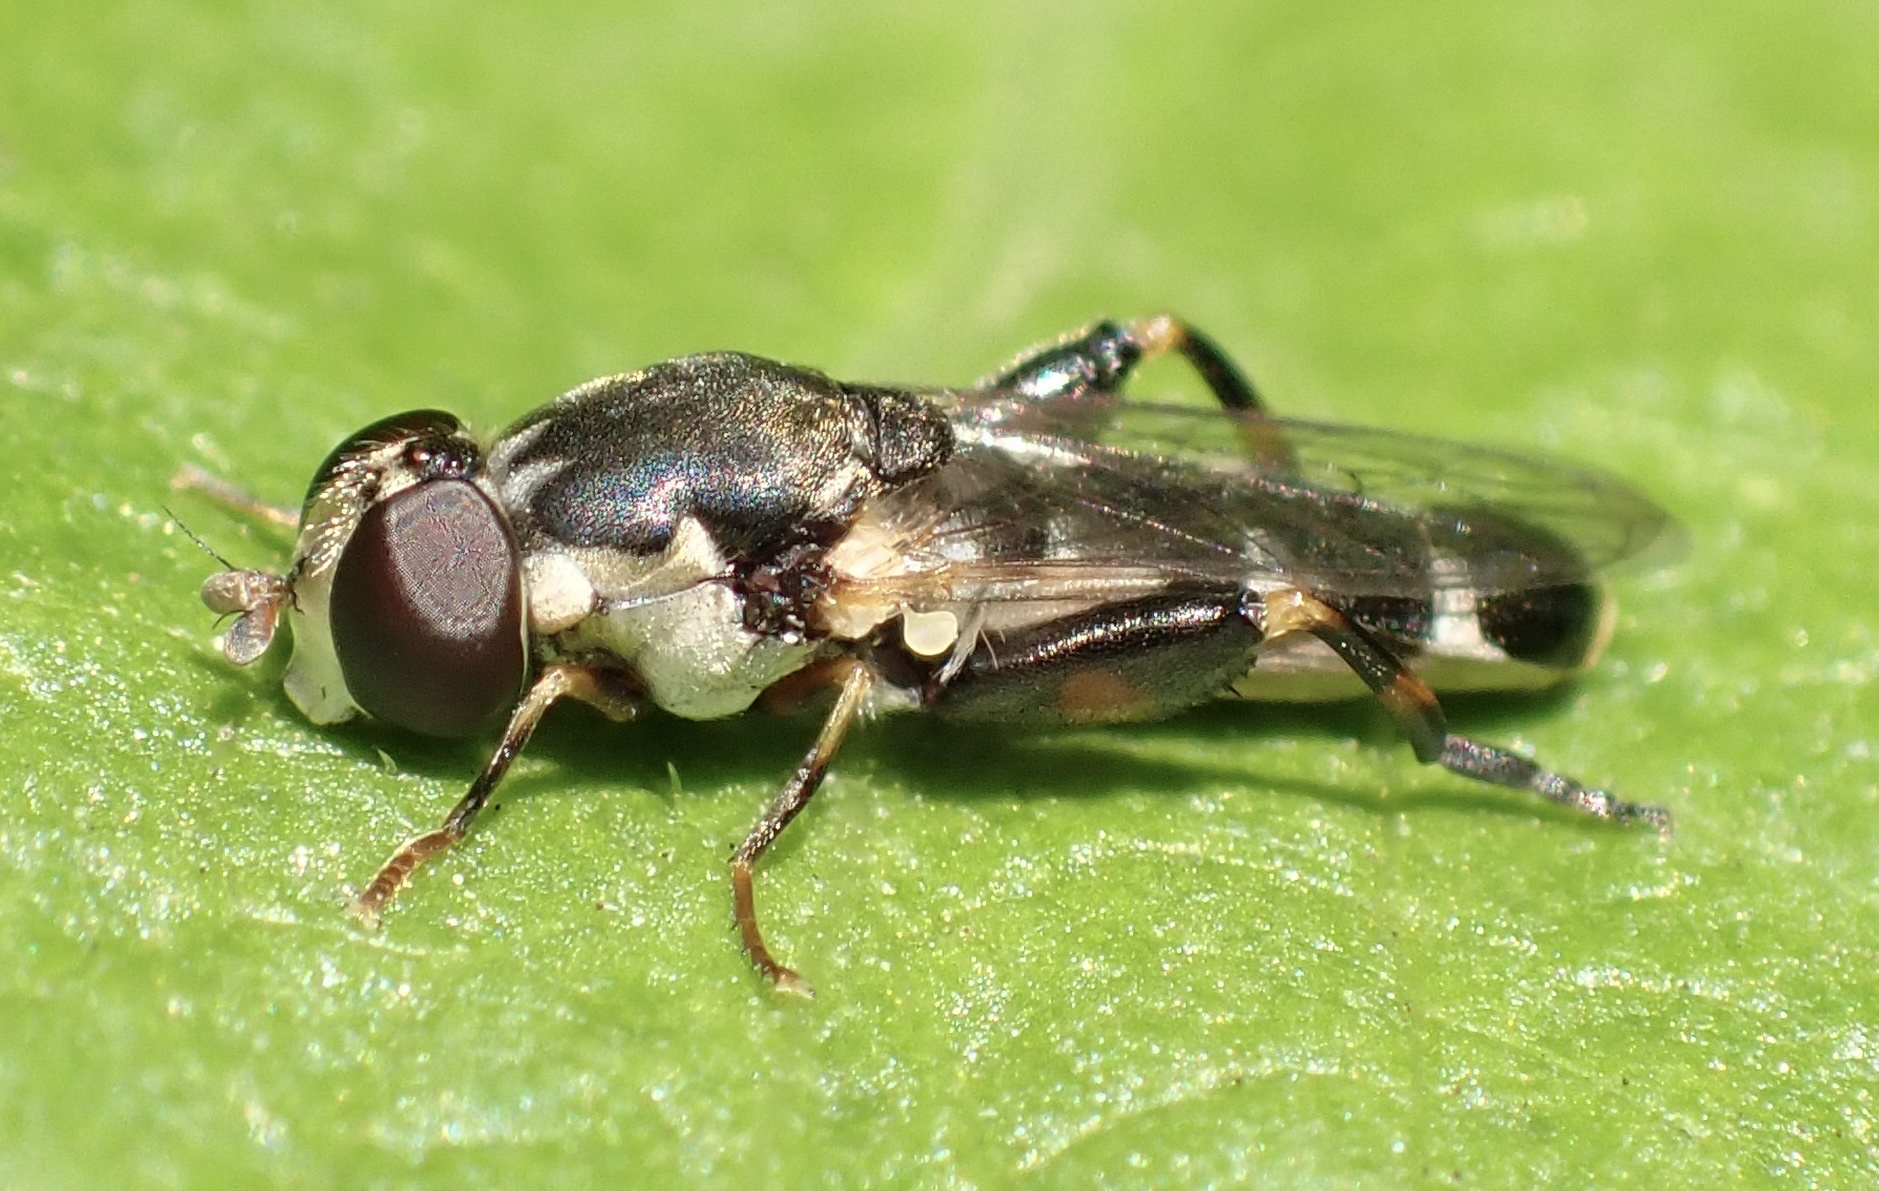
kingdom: Animalia
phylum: Arthropoda
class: Insecta
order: Diptera
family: Syrphidae
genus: Syritta
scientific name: Syritta pipiens
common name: Hover fly
